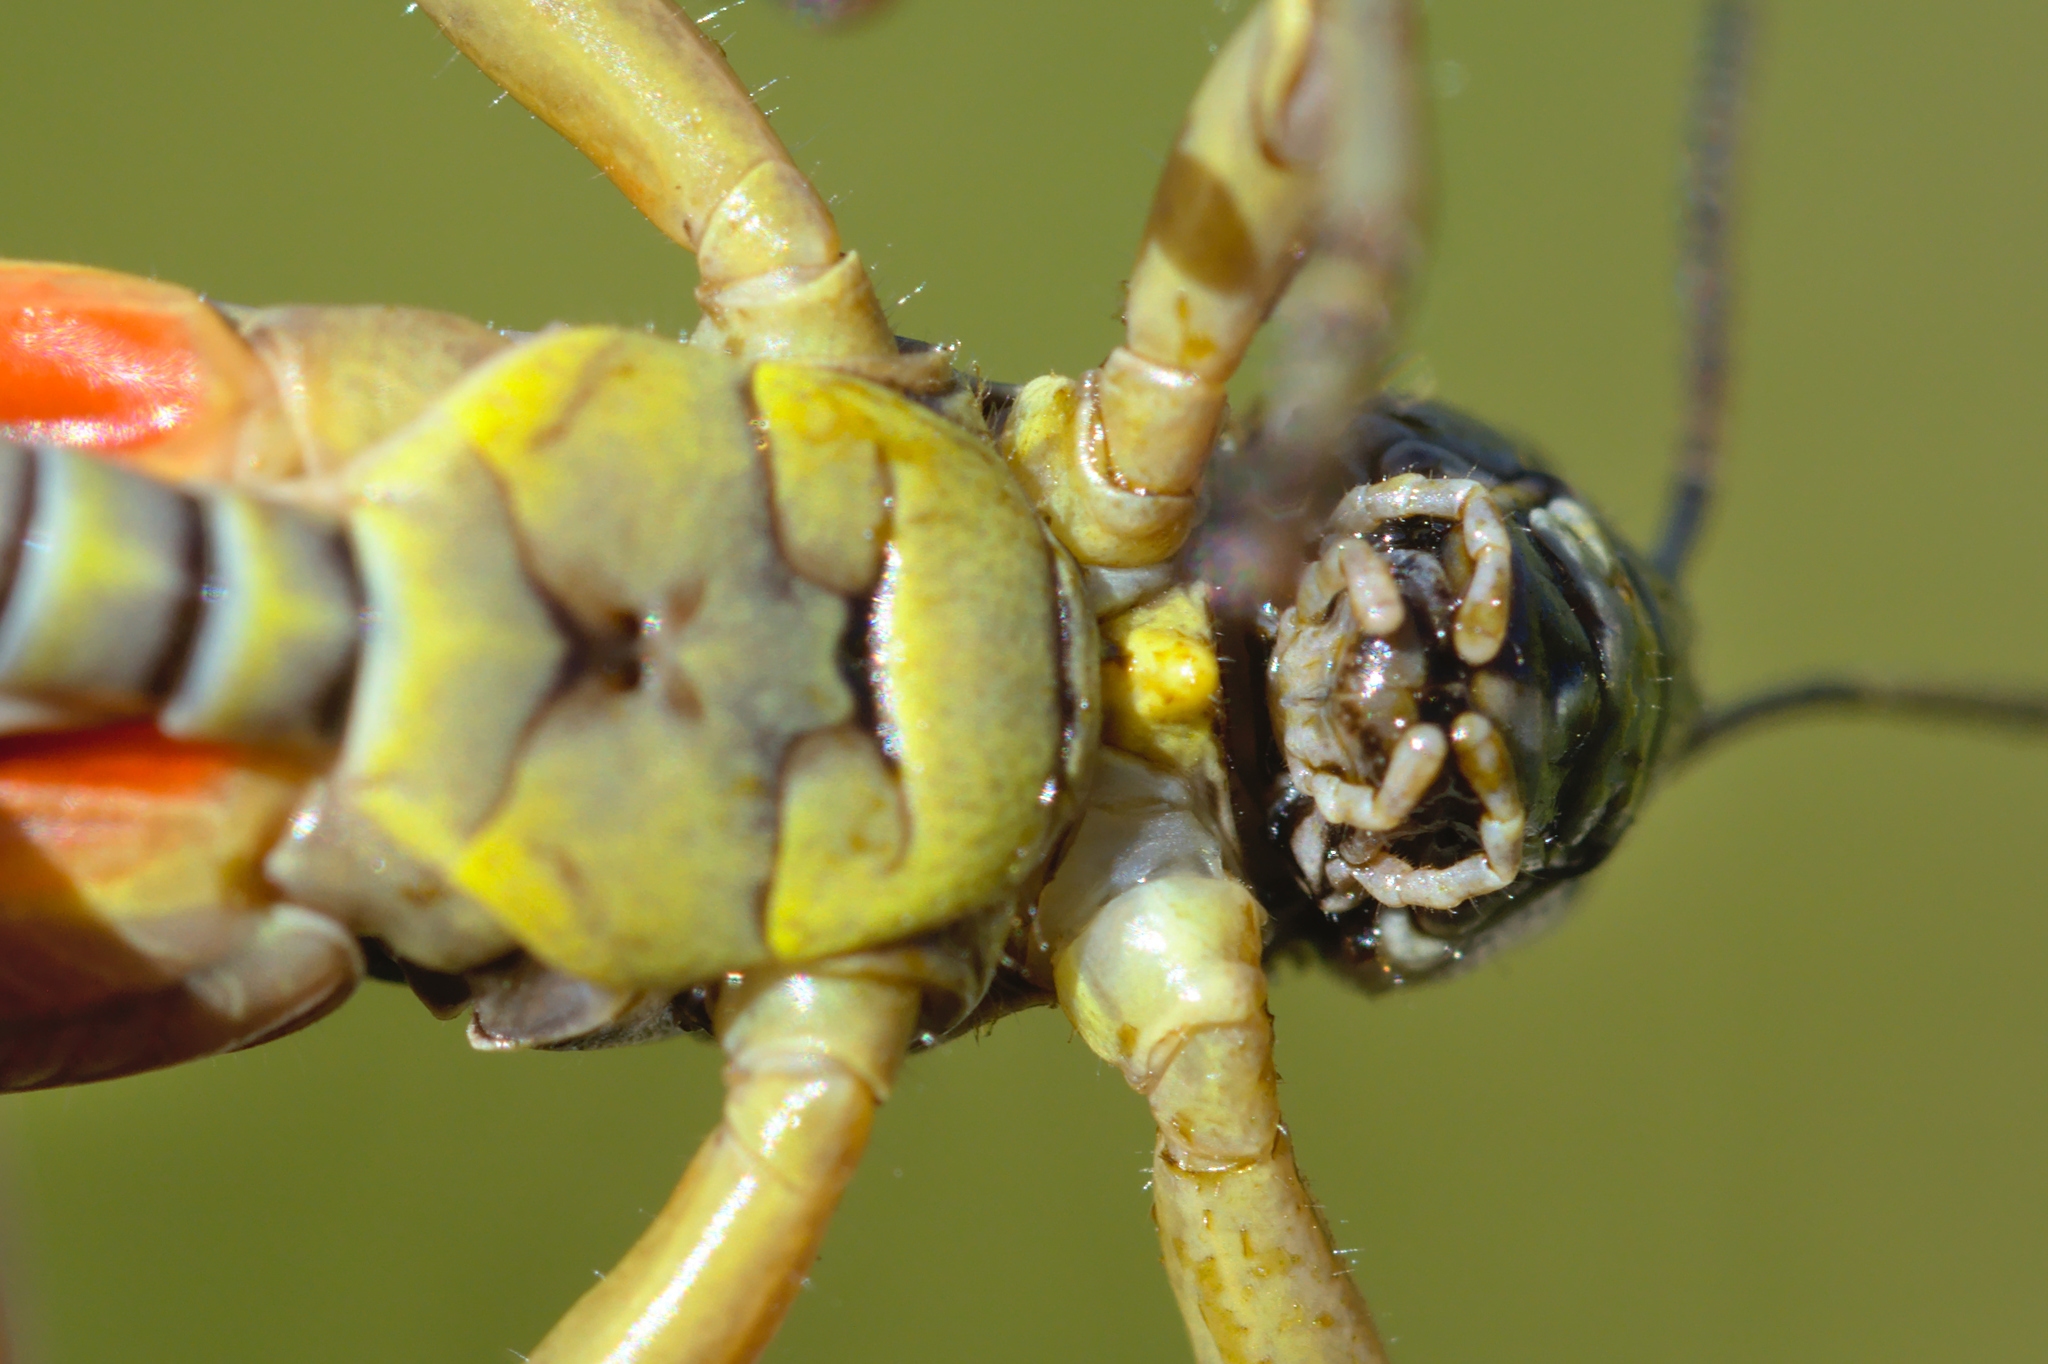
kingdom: Animalia
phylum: Arthropoda
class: Insecta
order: Orthoptera
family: Acrididae
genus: Cophopodisma
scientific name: Cophopodisma pyrenaea
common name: Pyrenean mountain grasshopper
